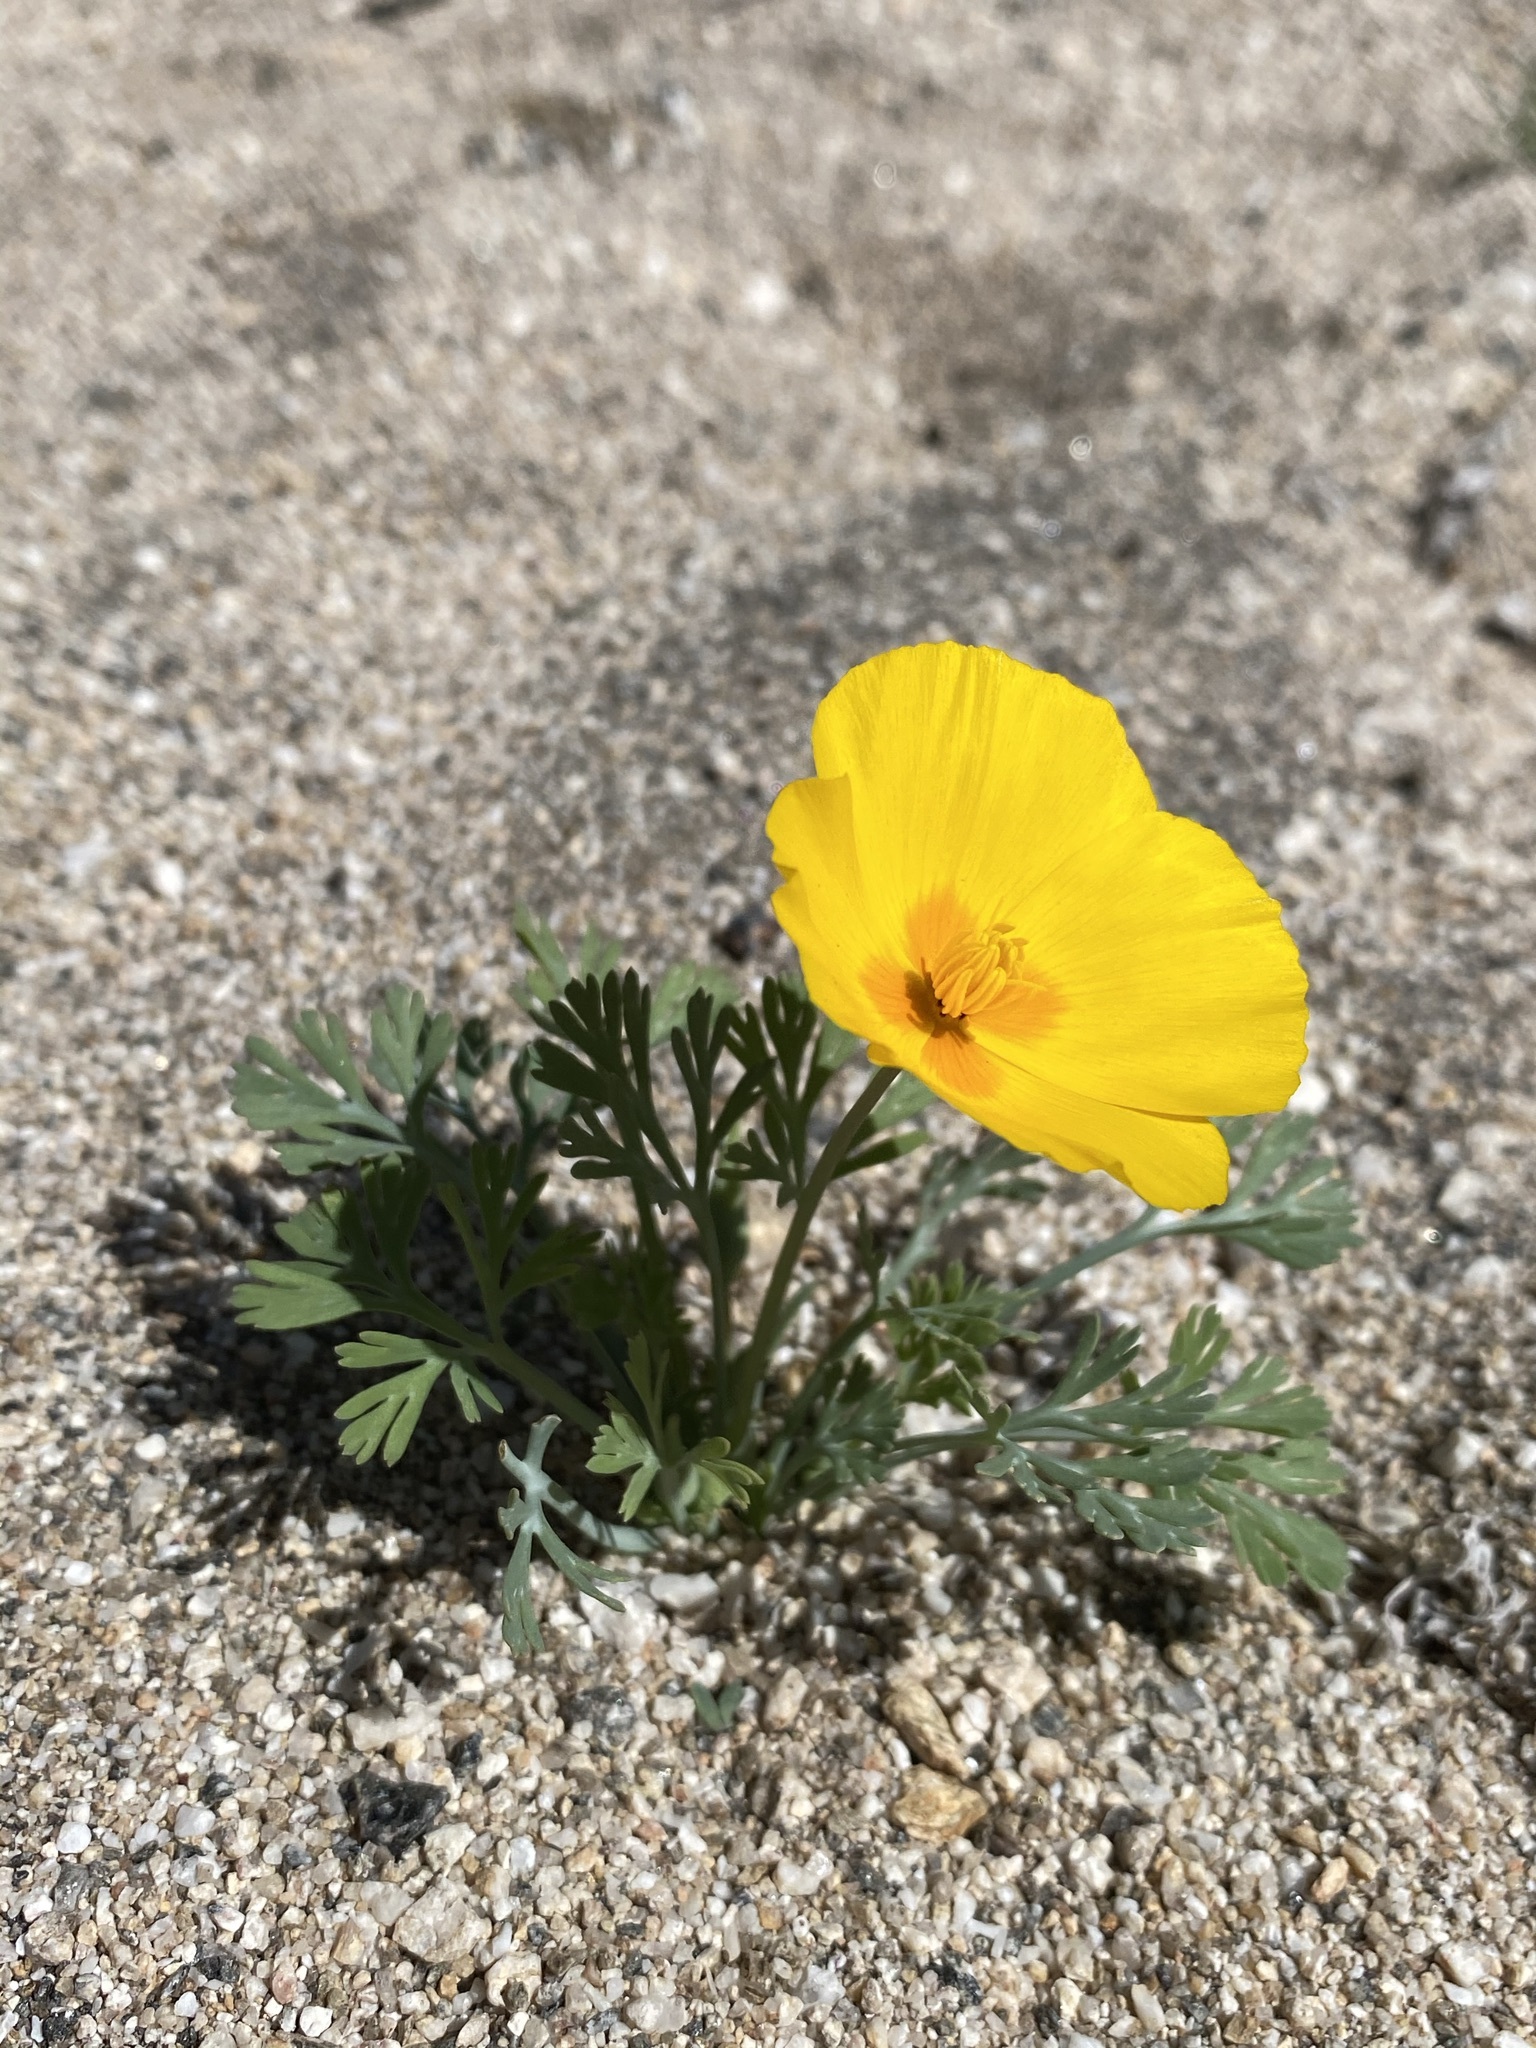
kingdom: Plantae
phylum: Tracheophyta
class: Magnoliopsida
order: Ranunculales
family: Papaveraceae
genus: Eschscholzia
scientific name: Eschscholzia californica
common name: California poppy
